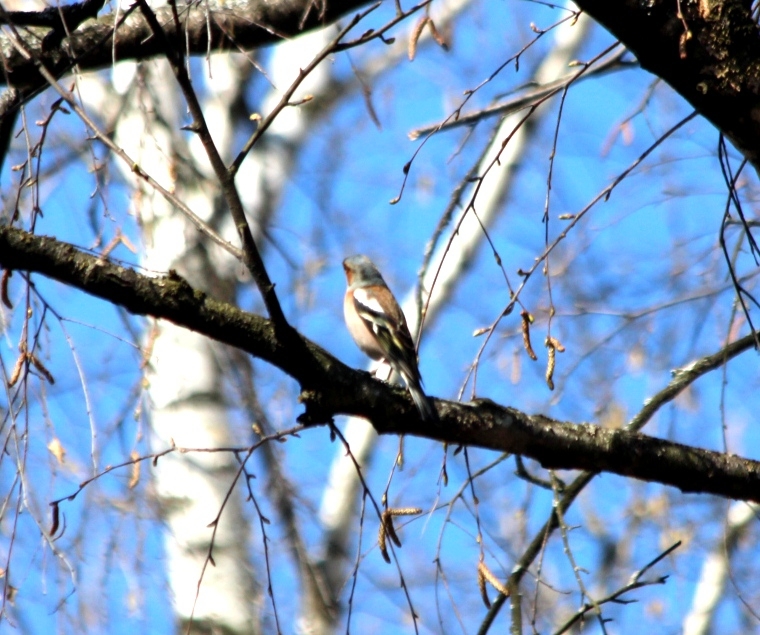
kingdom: Animalia
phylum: Chordata
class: Aves
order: Passeriformes
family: Fringillidae
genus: Fringilla
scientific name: Fringilla coelebs
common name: Common chaffinch
